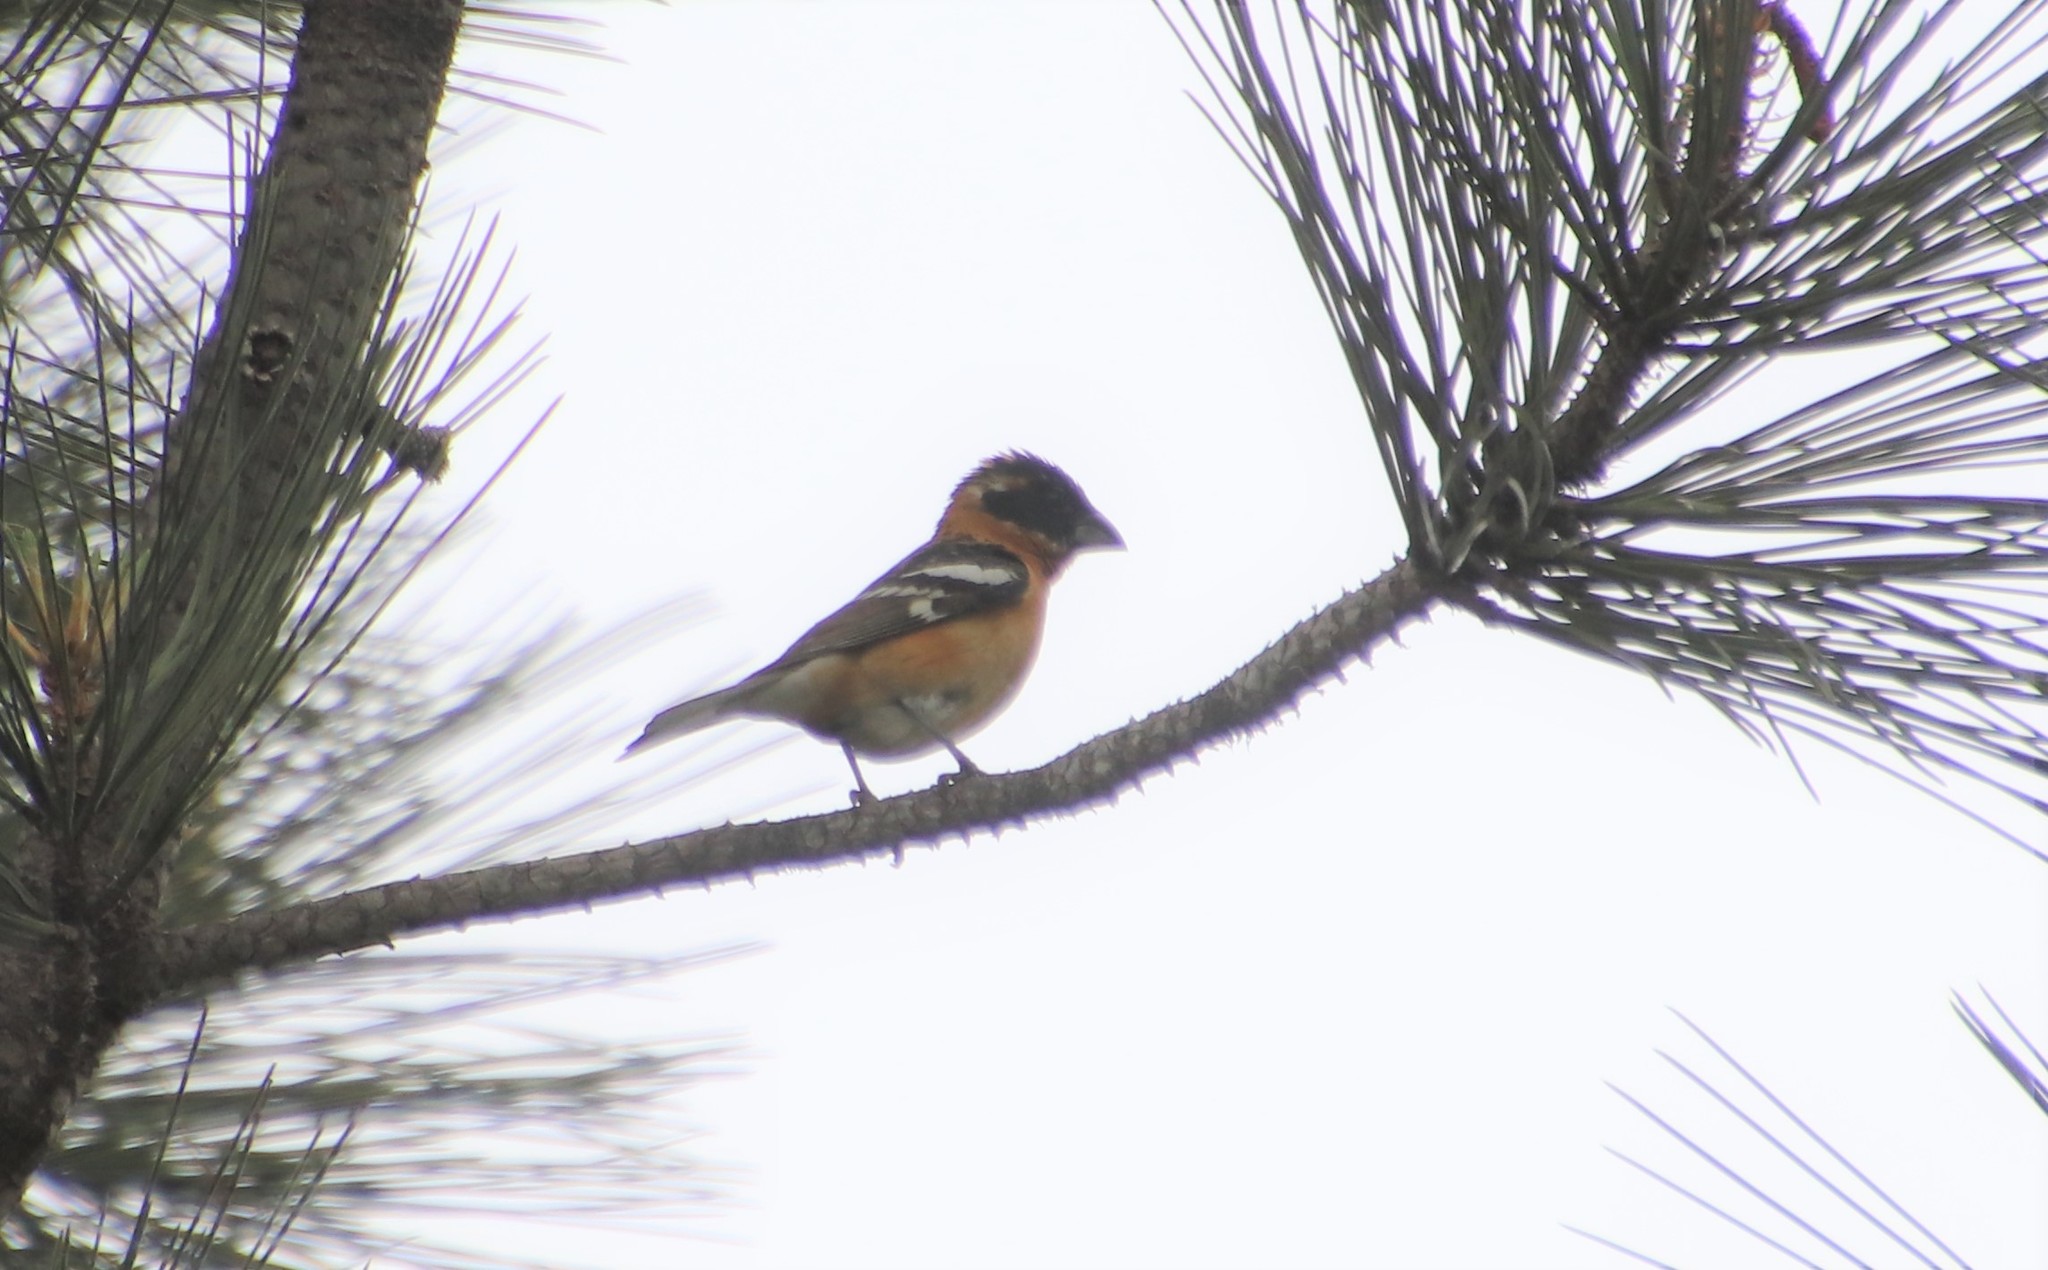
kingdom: Animalia
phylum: Chordata
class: Aves
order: Passeriformes
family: Cardinalidae
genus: Pheucticus
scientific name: Pheucticus melanocephalus
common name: Black-headed grosbeak
